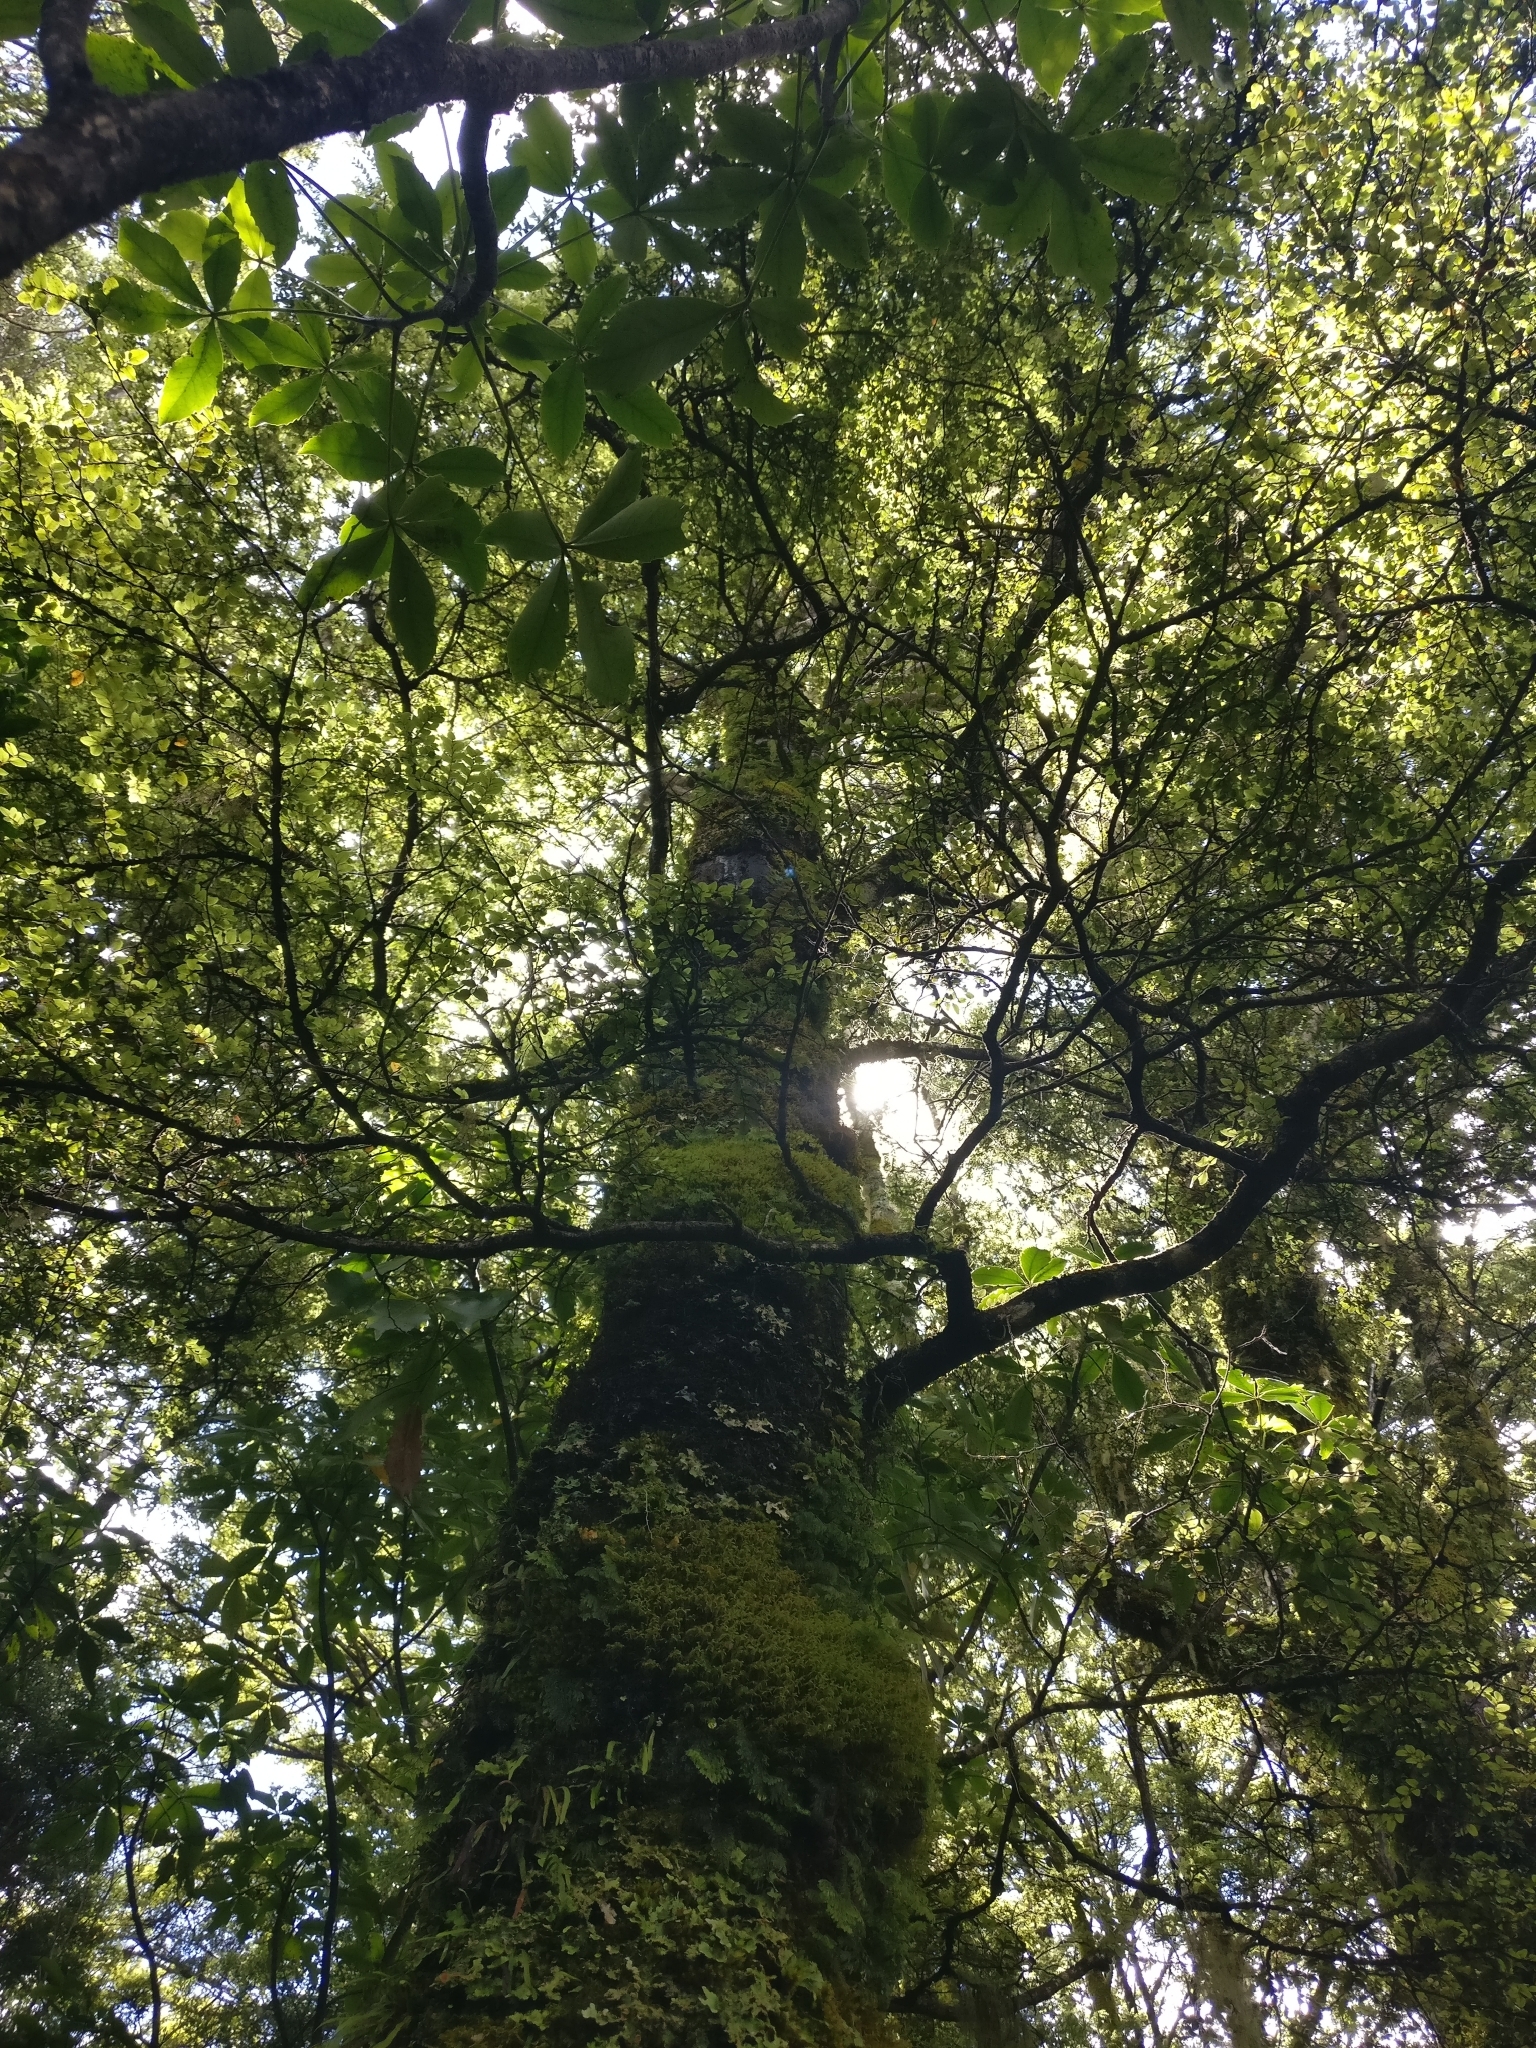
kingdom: Plantae
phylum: Tracheophyta
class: Magnoliopsida
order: Fagales
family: Nothofagaceae
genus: Nothofagus
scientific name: Nothofagus cliffortioides
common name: Mountain beech
